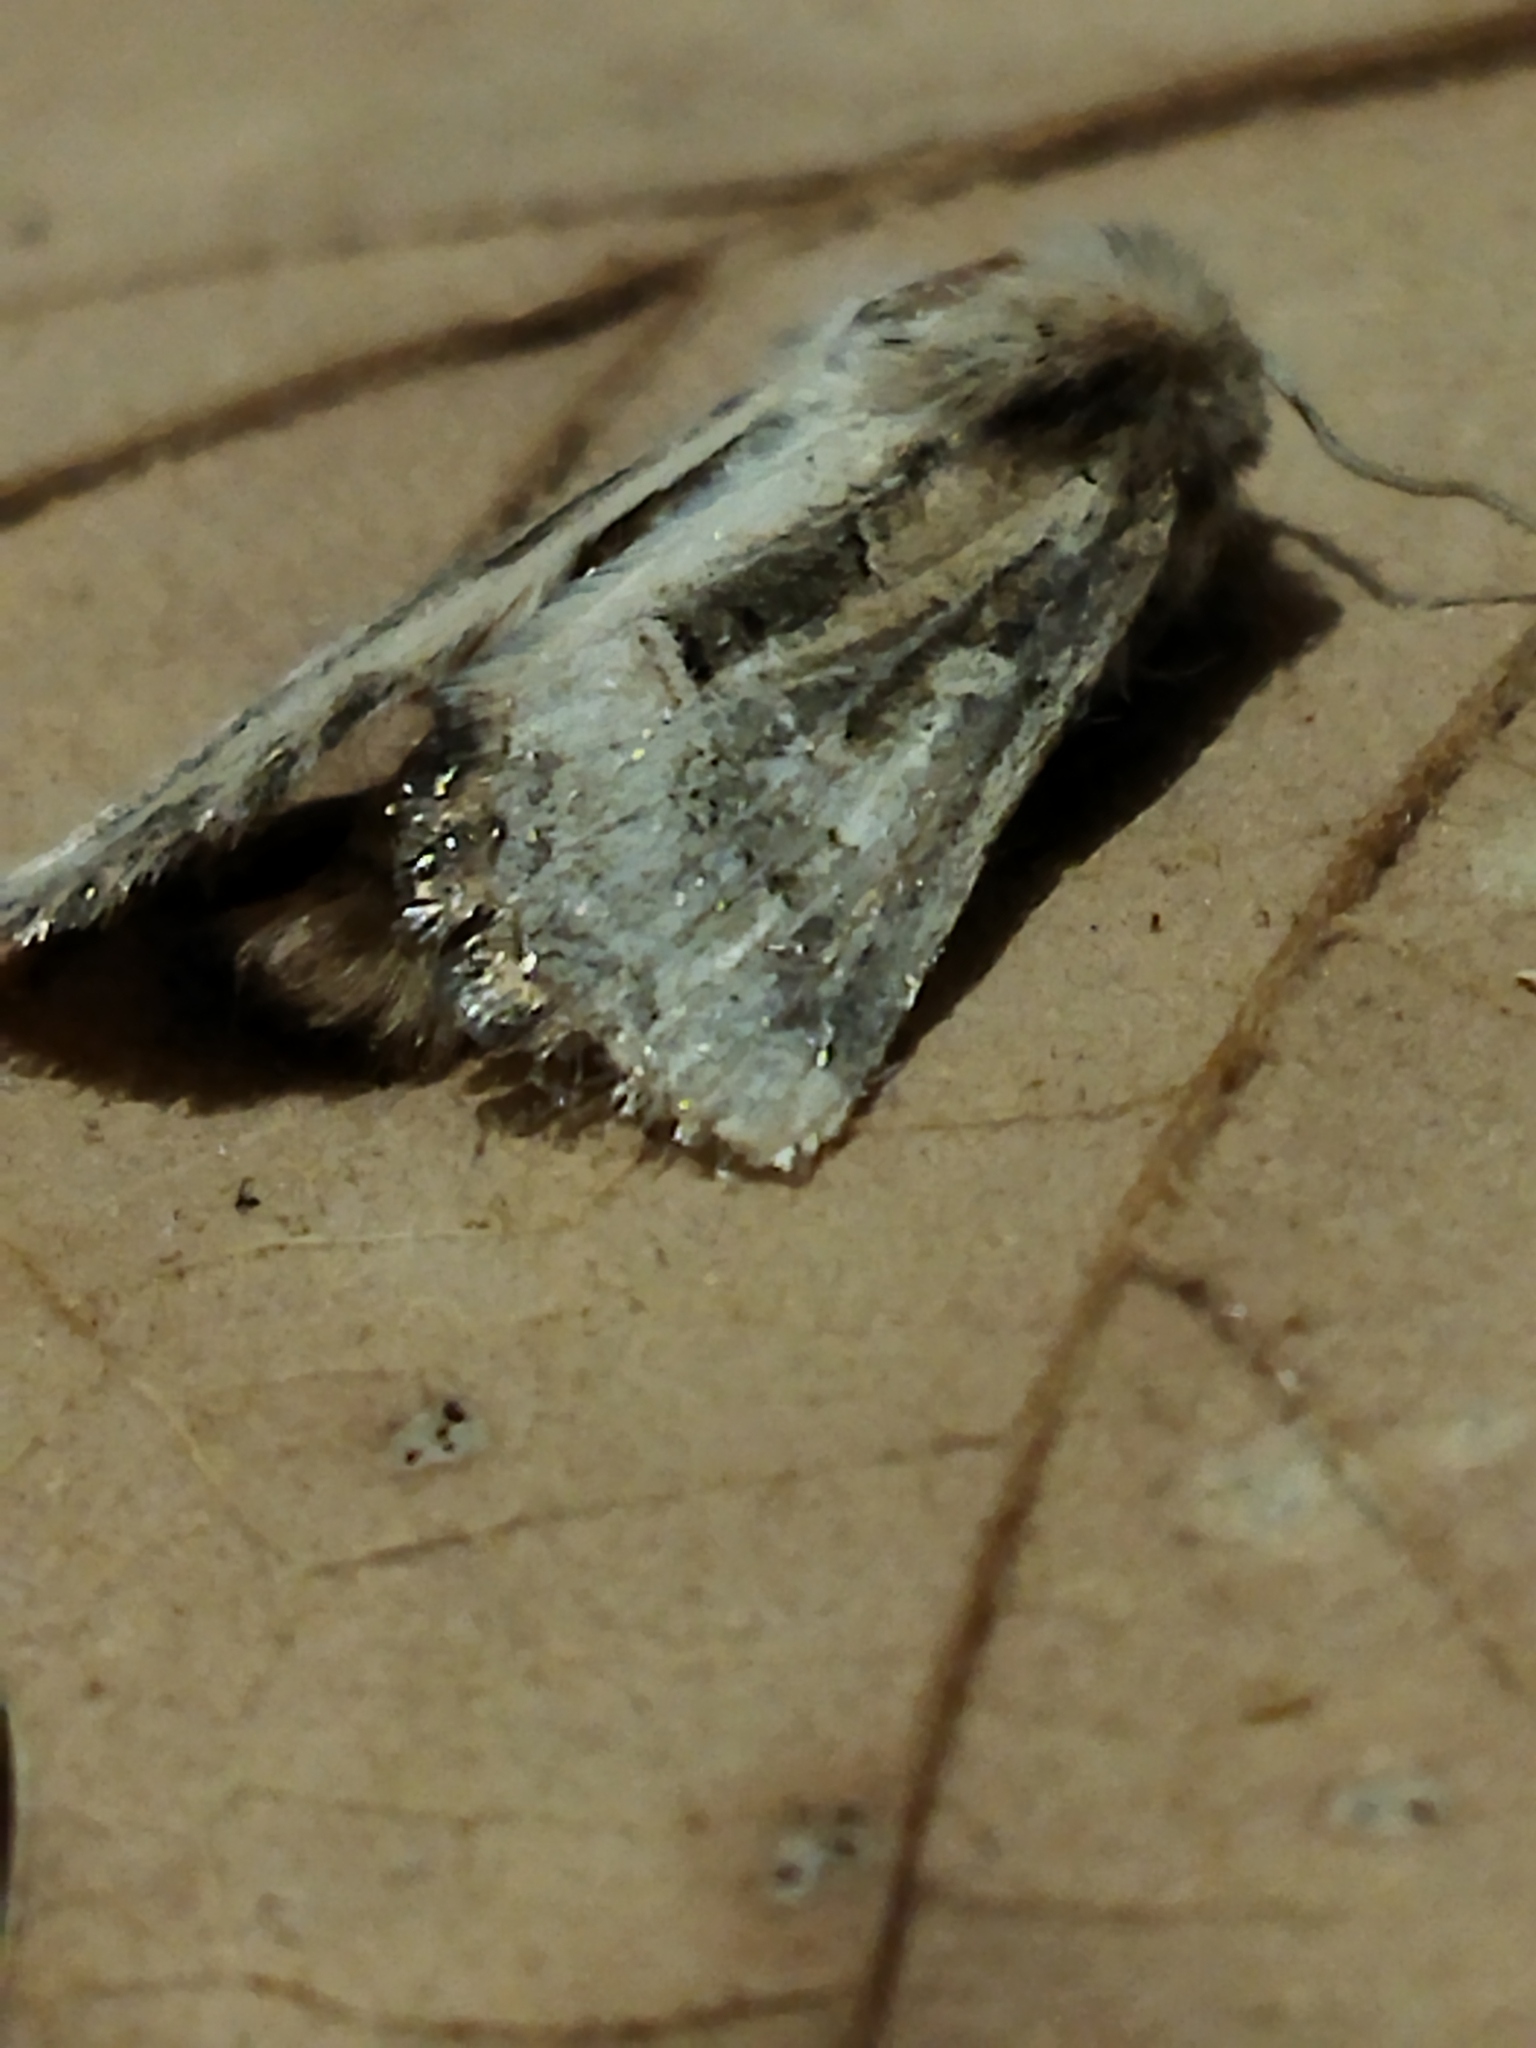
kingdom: Animalia
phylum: Arthropoda
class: Insecta
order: Lepidoptera
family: Noctuidae
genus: Luperina
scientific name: Luperina dumerilii
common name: Dumeril's rustic
